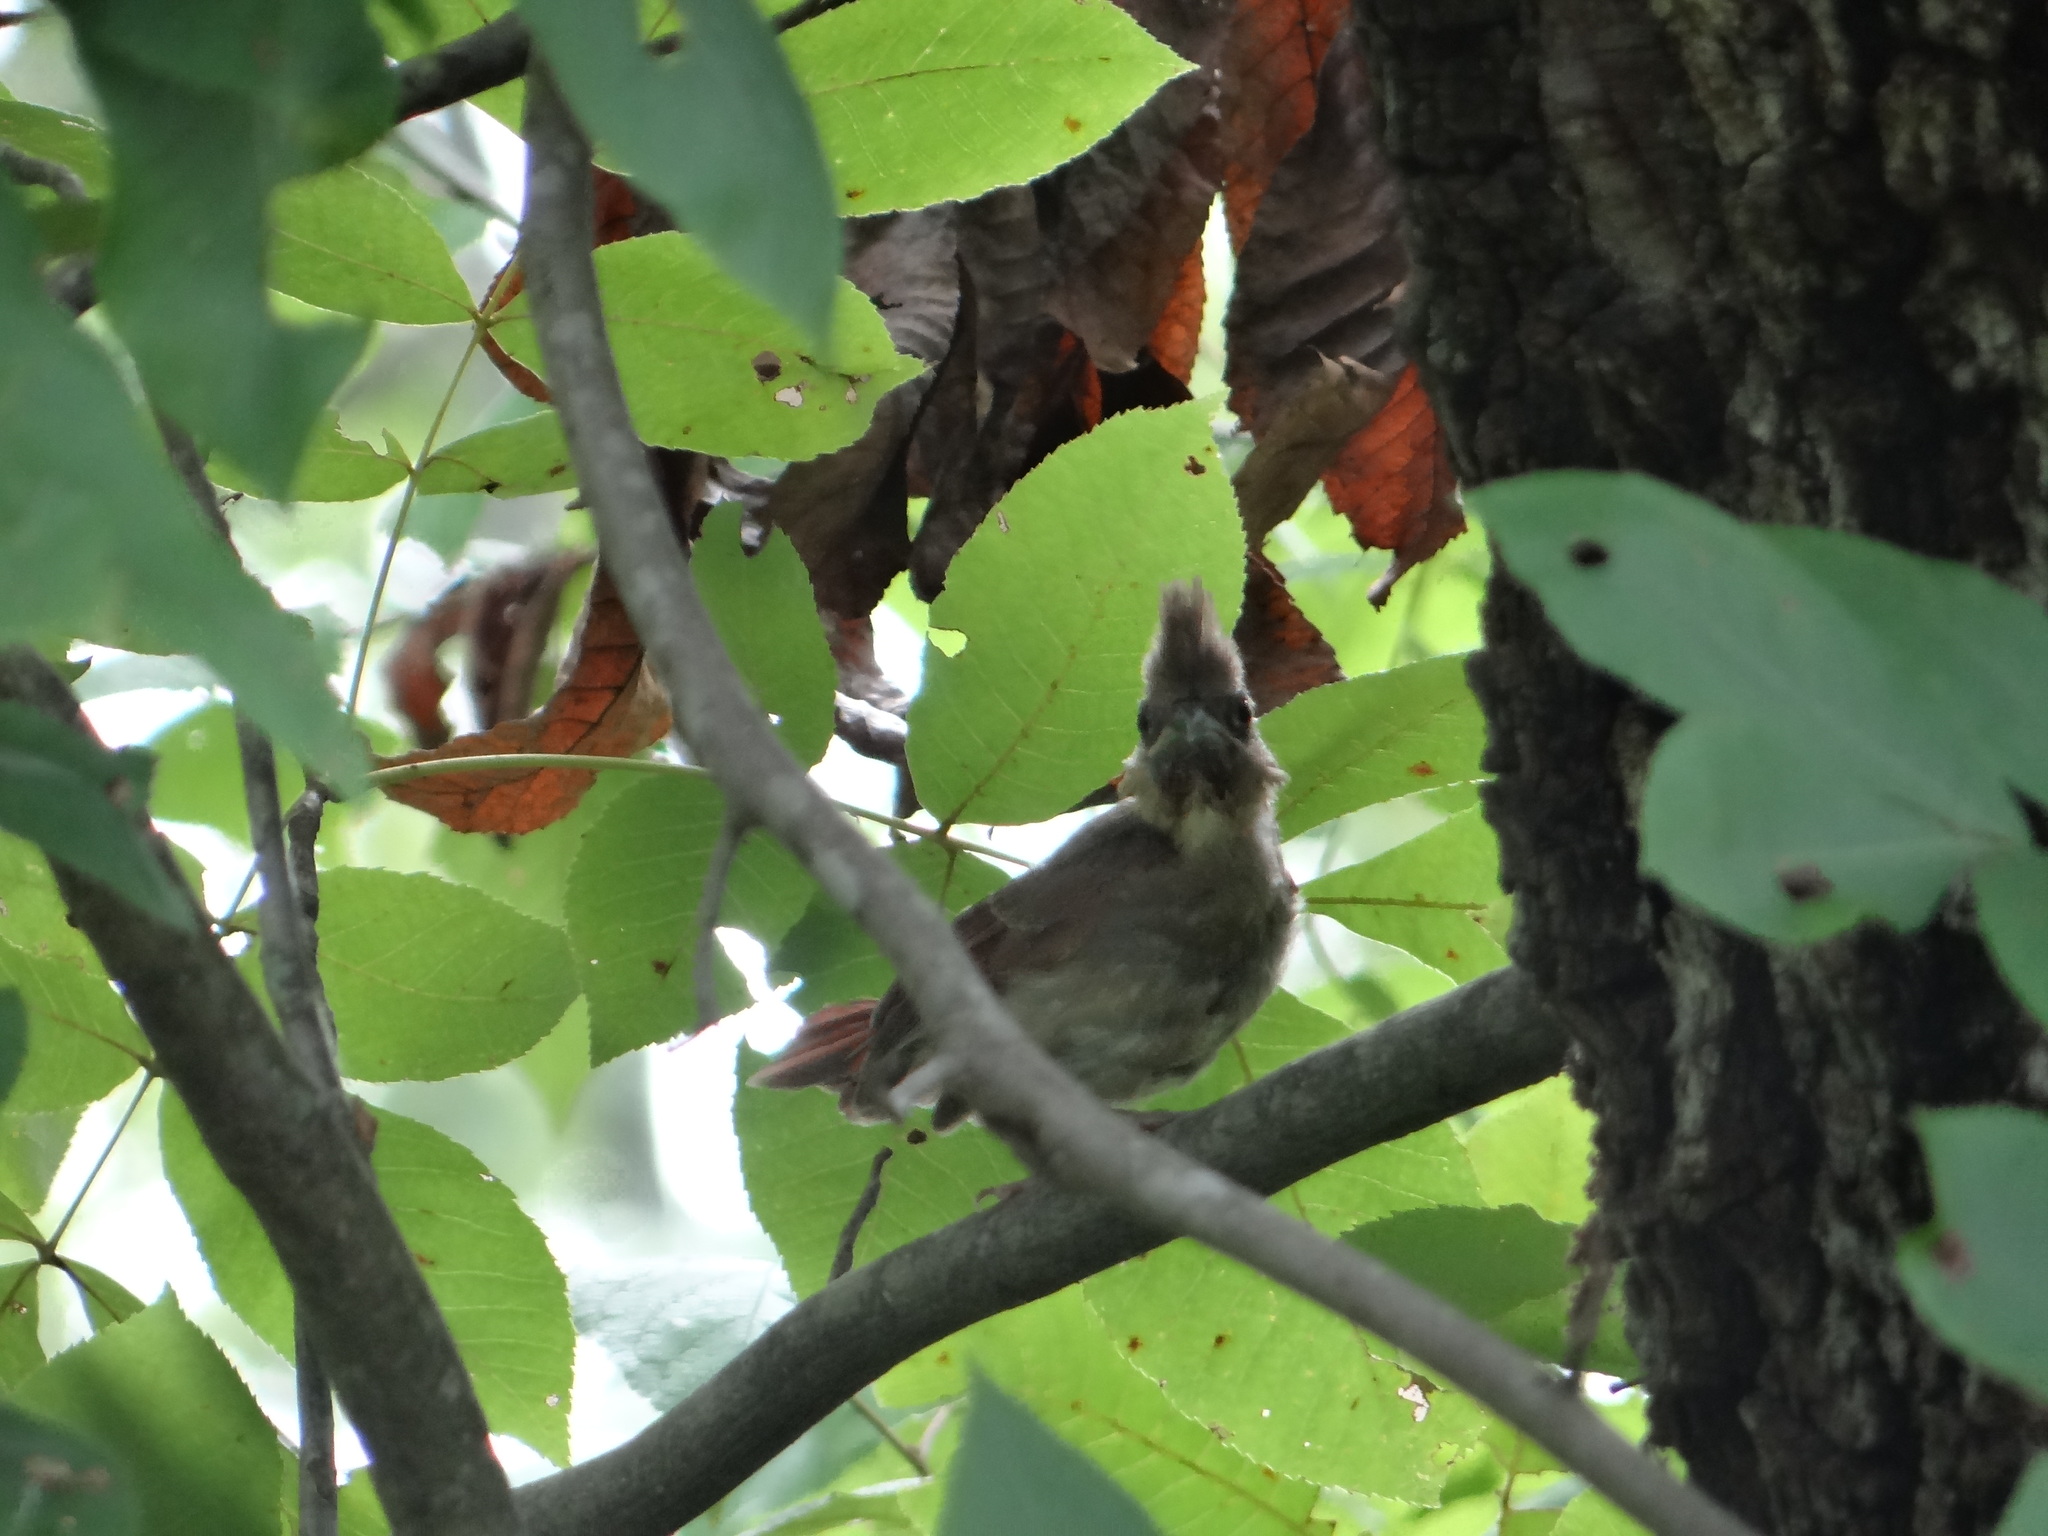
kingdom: Animalia
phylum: Chordata
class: Aves
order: Passeriformes
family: Cardinalidae
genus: Cardinalis
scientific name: Cardinalis cardinalis
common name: Northern cardinal
